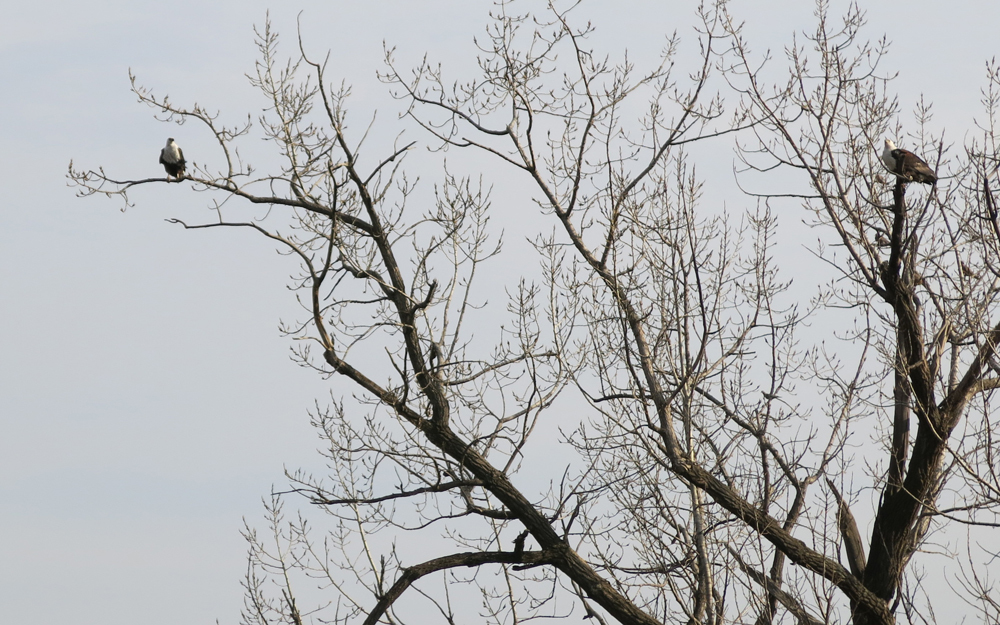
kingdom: Animalia
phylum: Chordata
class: Aves
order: Accipitriformes
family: Accipitridae
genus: Haliaeetus
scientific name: Haliaeetus vocifer
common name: African fish eagle
